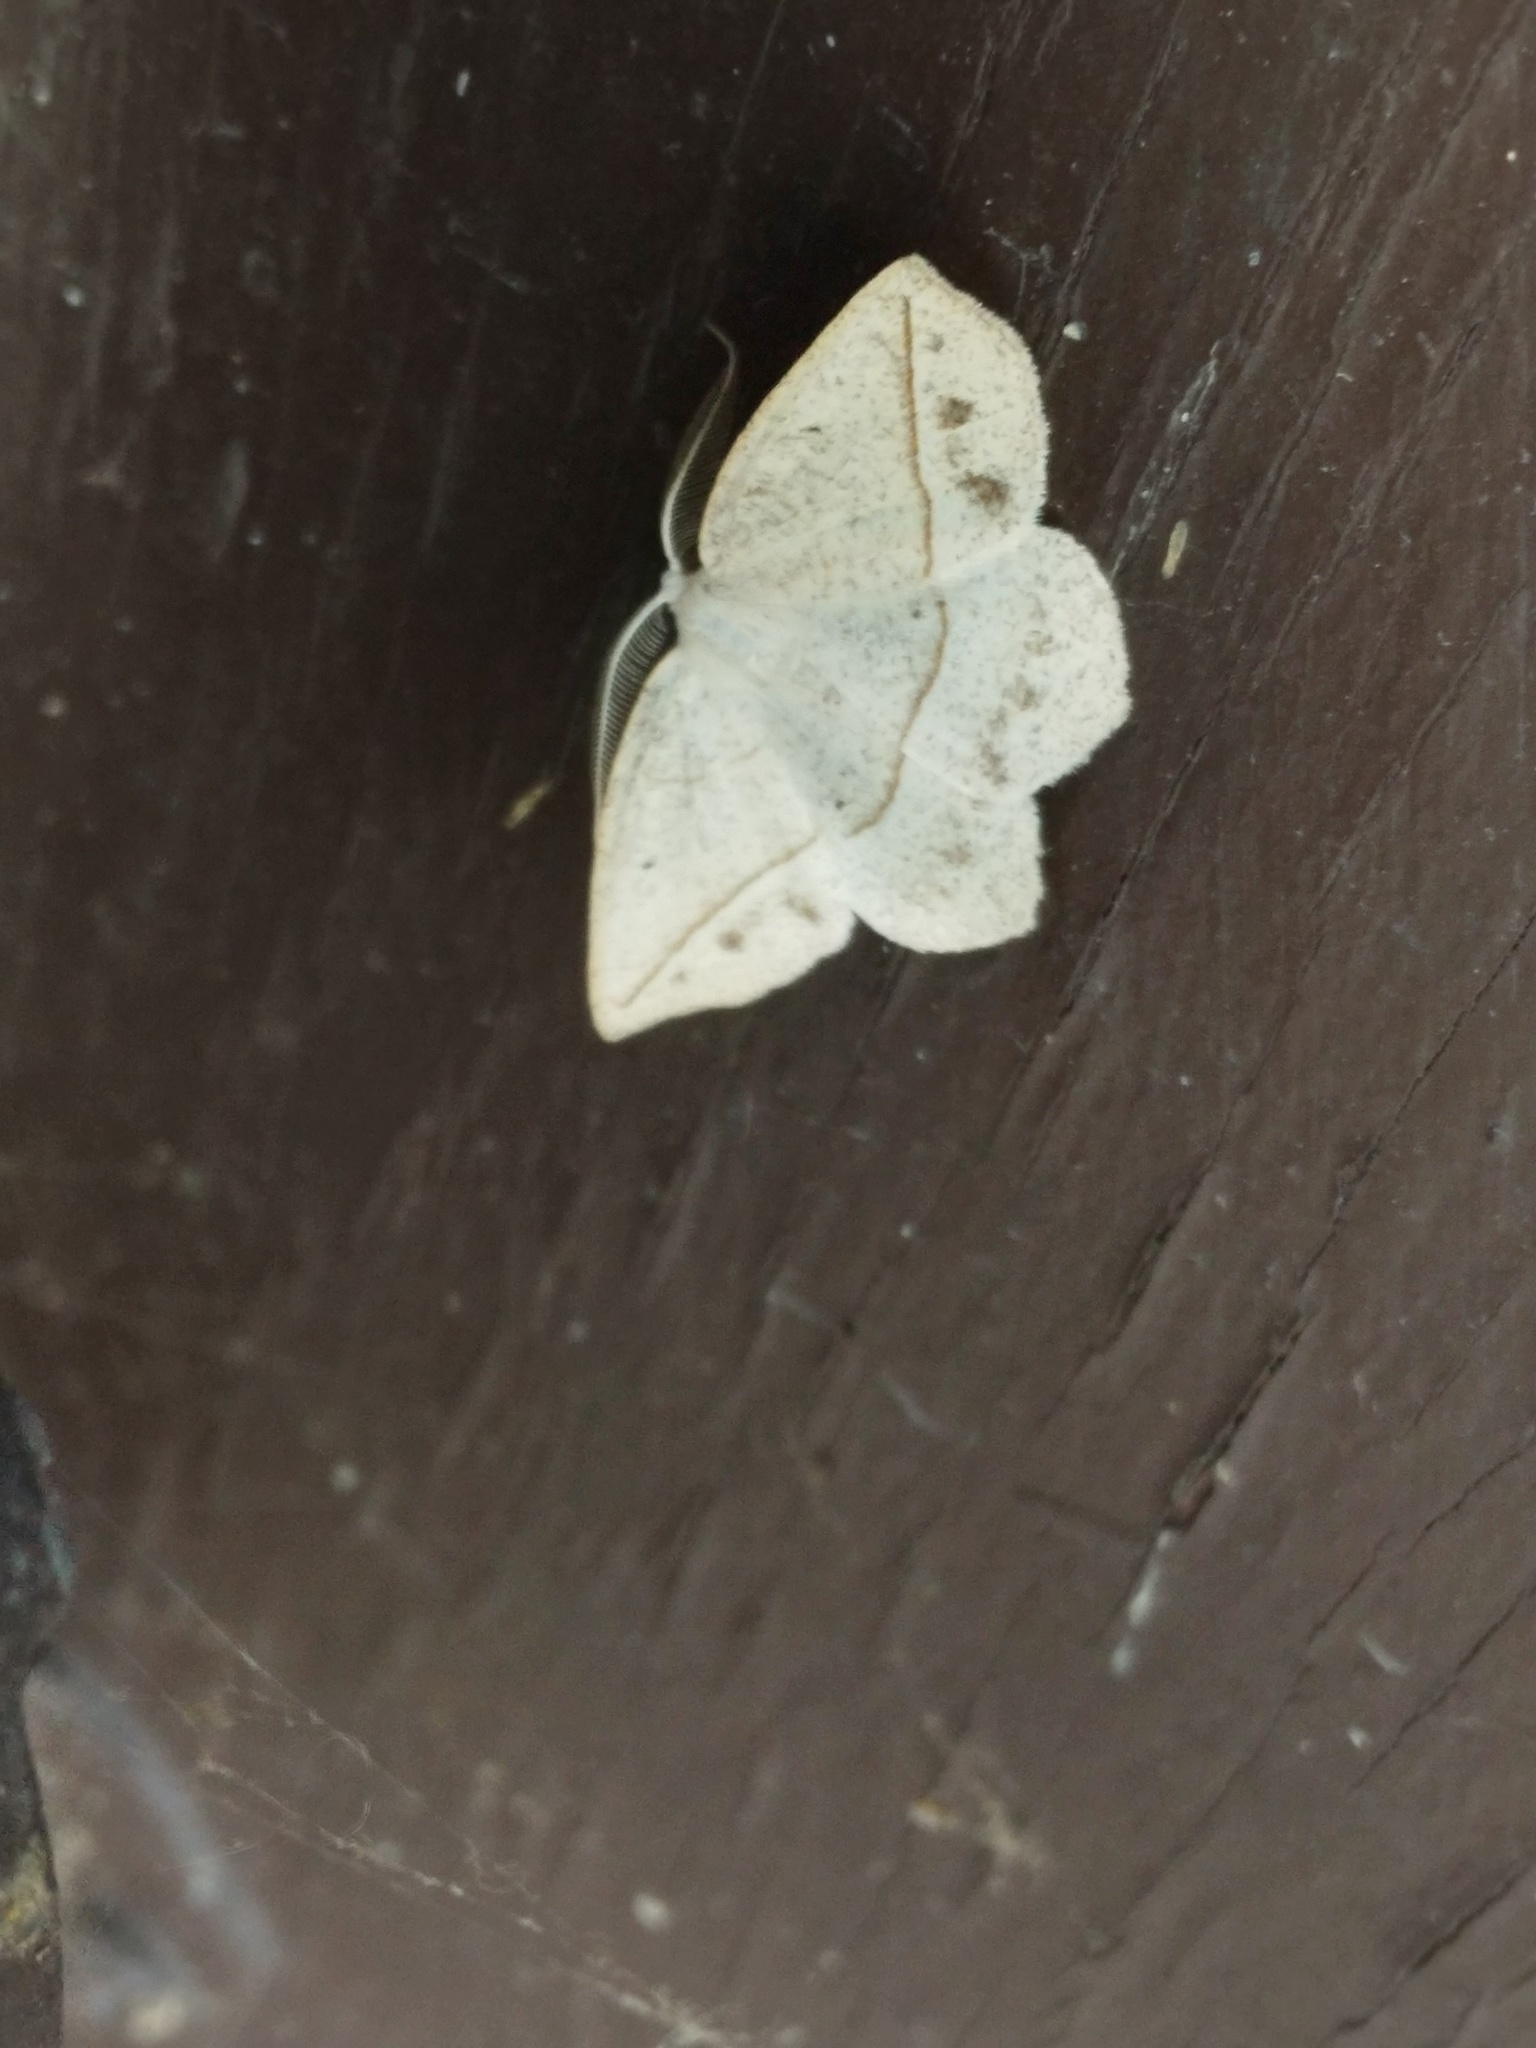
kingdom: Animalia
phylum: Arthropoda
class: Insecta
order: Lepidoptera
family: Geometridae
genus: Eusarca
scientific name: Eusarca confusaria
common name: Confused eusarca
